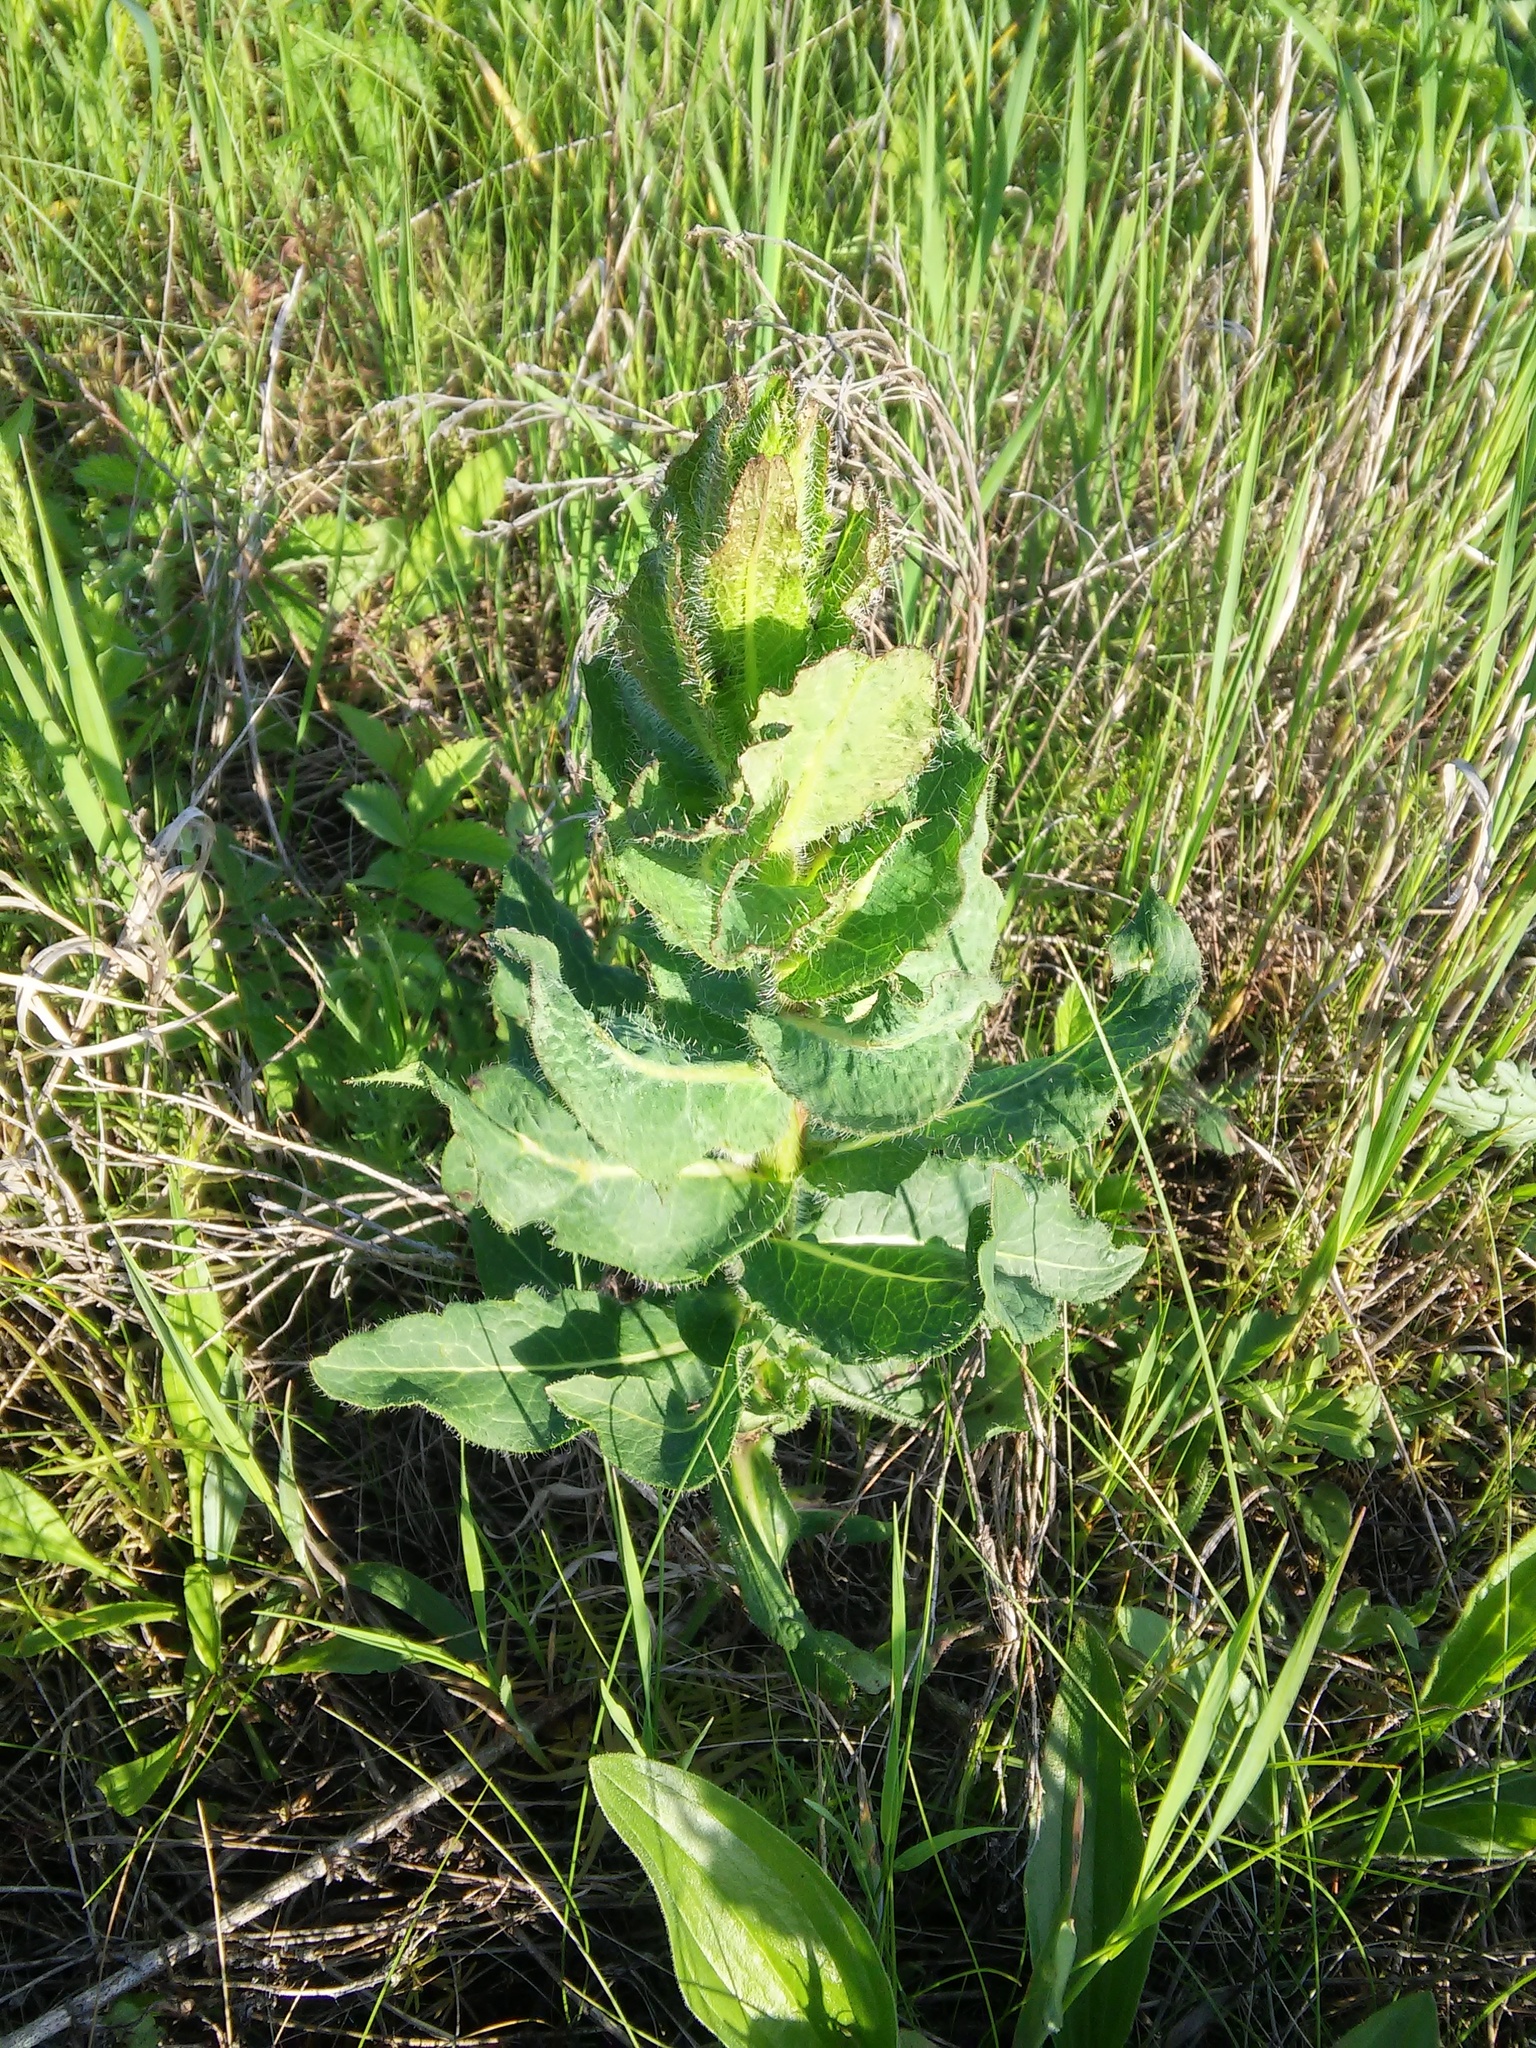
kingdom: Plantae
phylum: Tracheophyta
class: Magnoliopsida
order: Asterales
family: Asteraceae
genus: Hieracium
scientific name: Hieracium virosum
